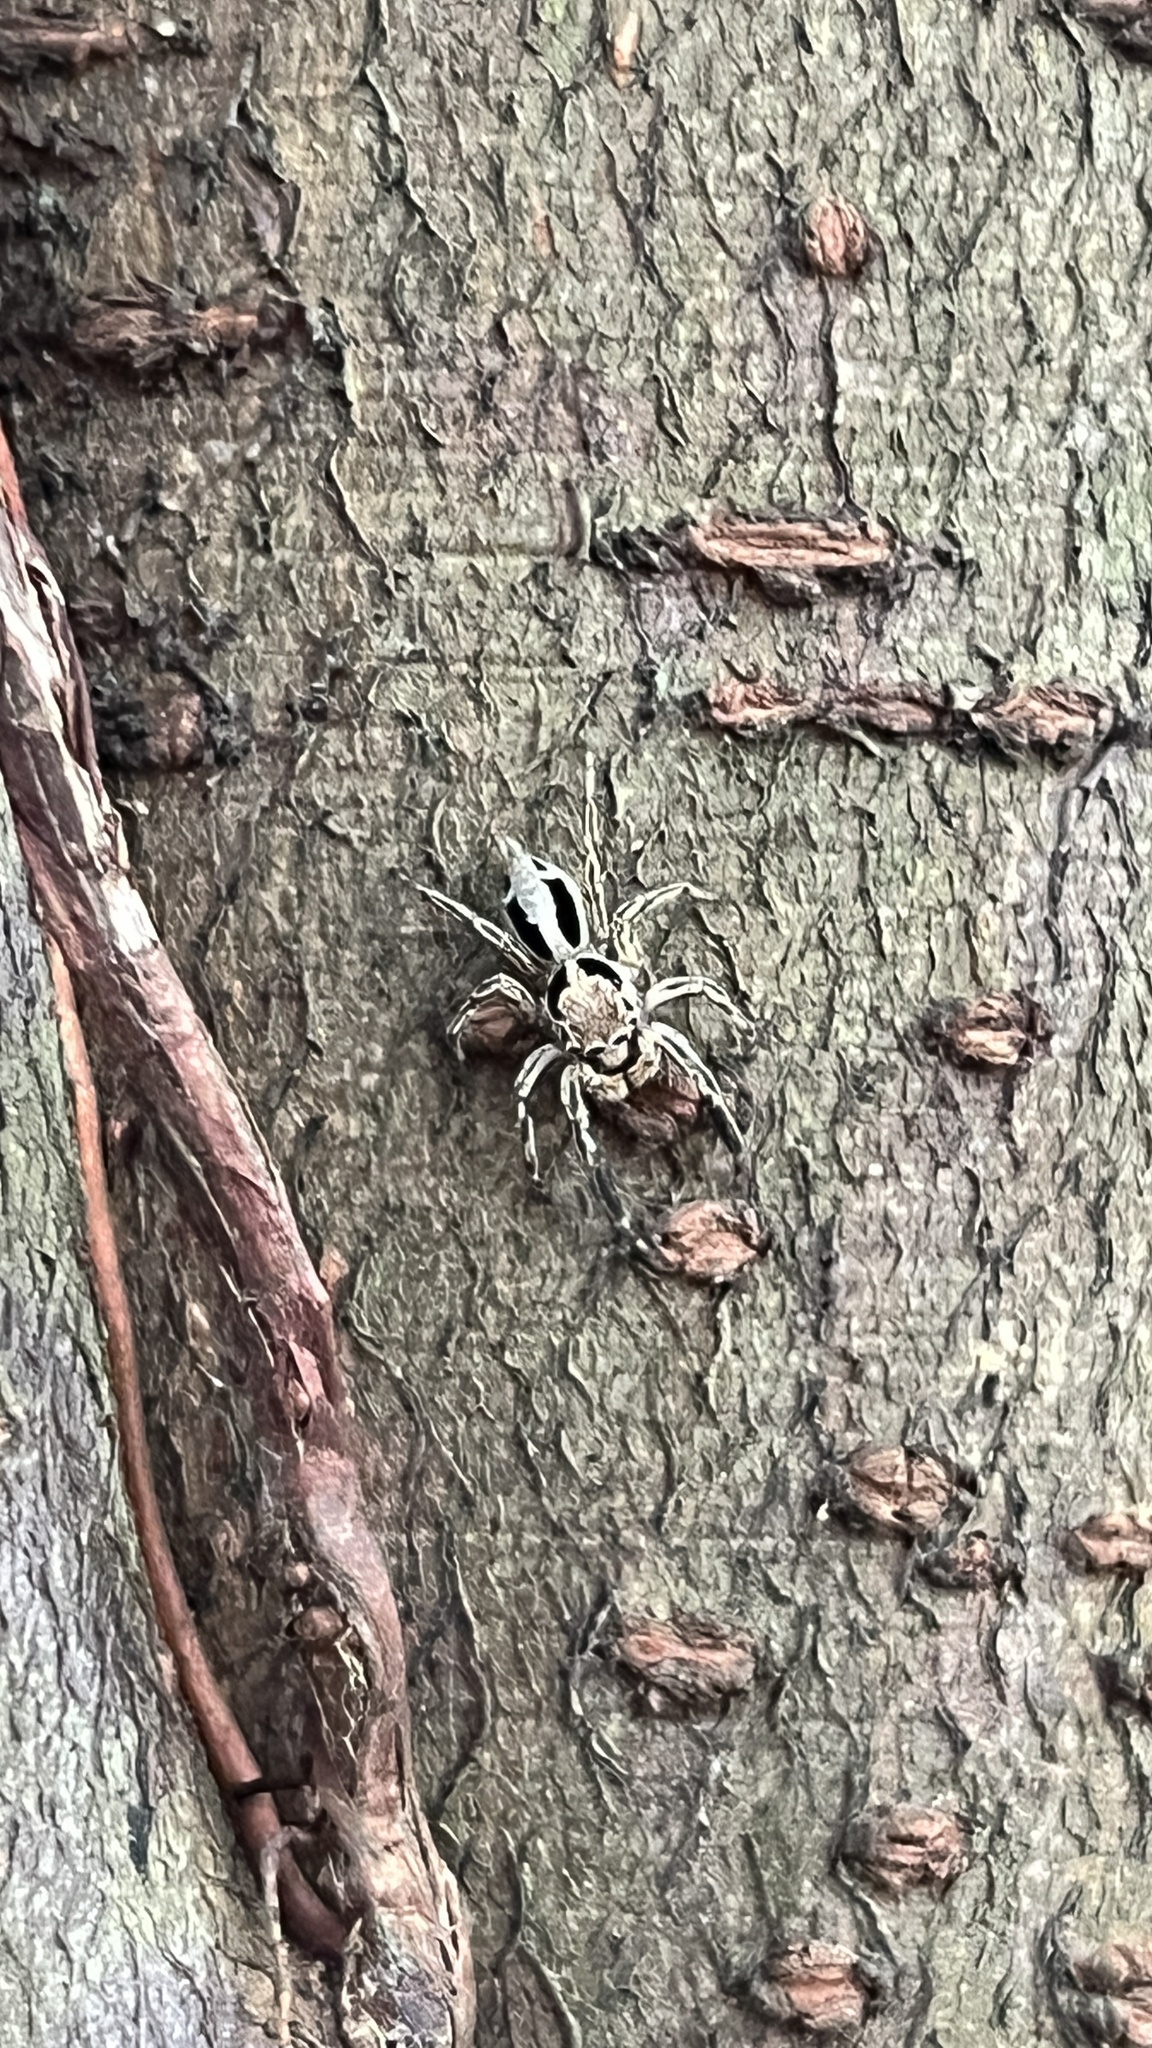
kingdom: Animalia
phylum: Arthropoda
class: Arachnida
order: Araneae
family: Salticidae
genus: Plexippus
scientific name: Plexippus petersi
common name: Jumping spider
